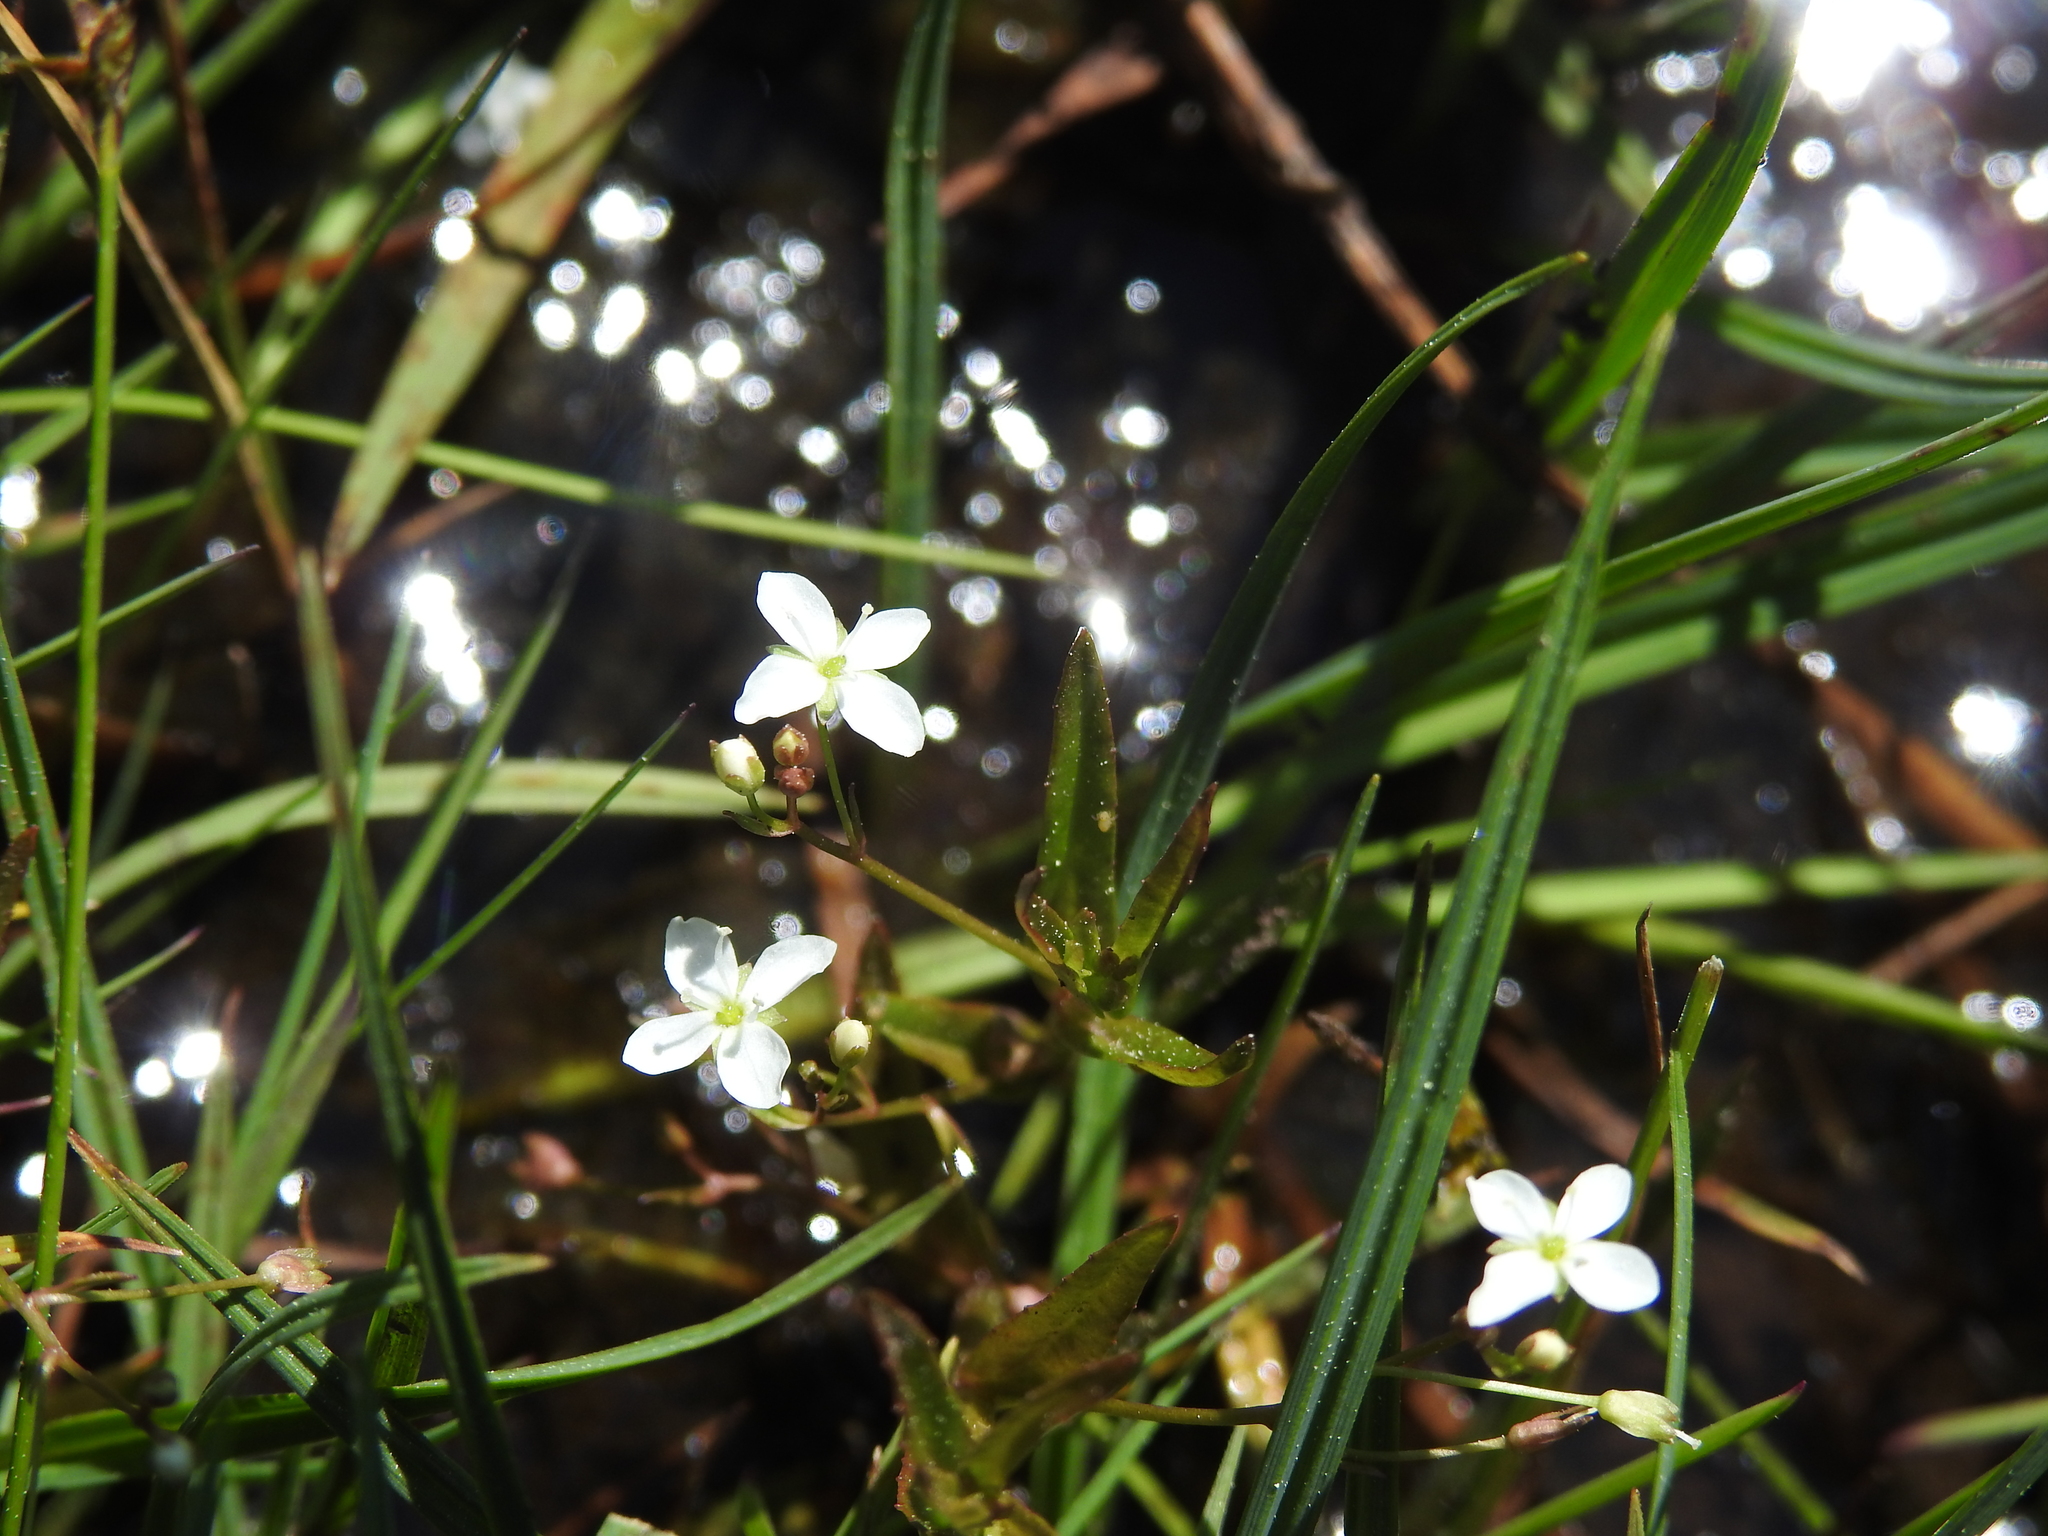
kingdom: Plantae
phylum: Tracheophyta
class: Magnoliopsida
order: Lamiales
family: Plantaginaceae
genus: Veronica
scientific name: Veronica scutellata
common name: Marsh speedwell
